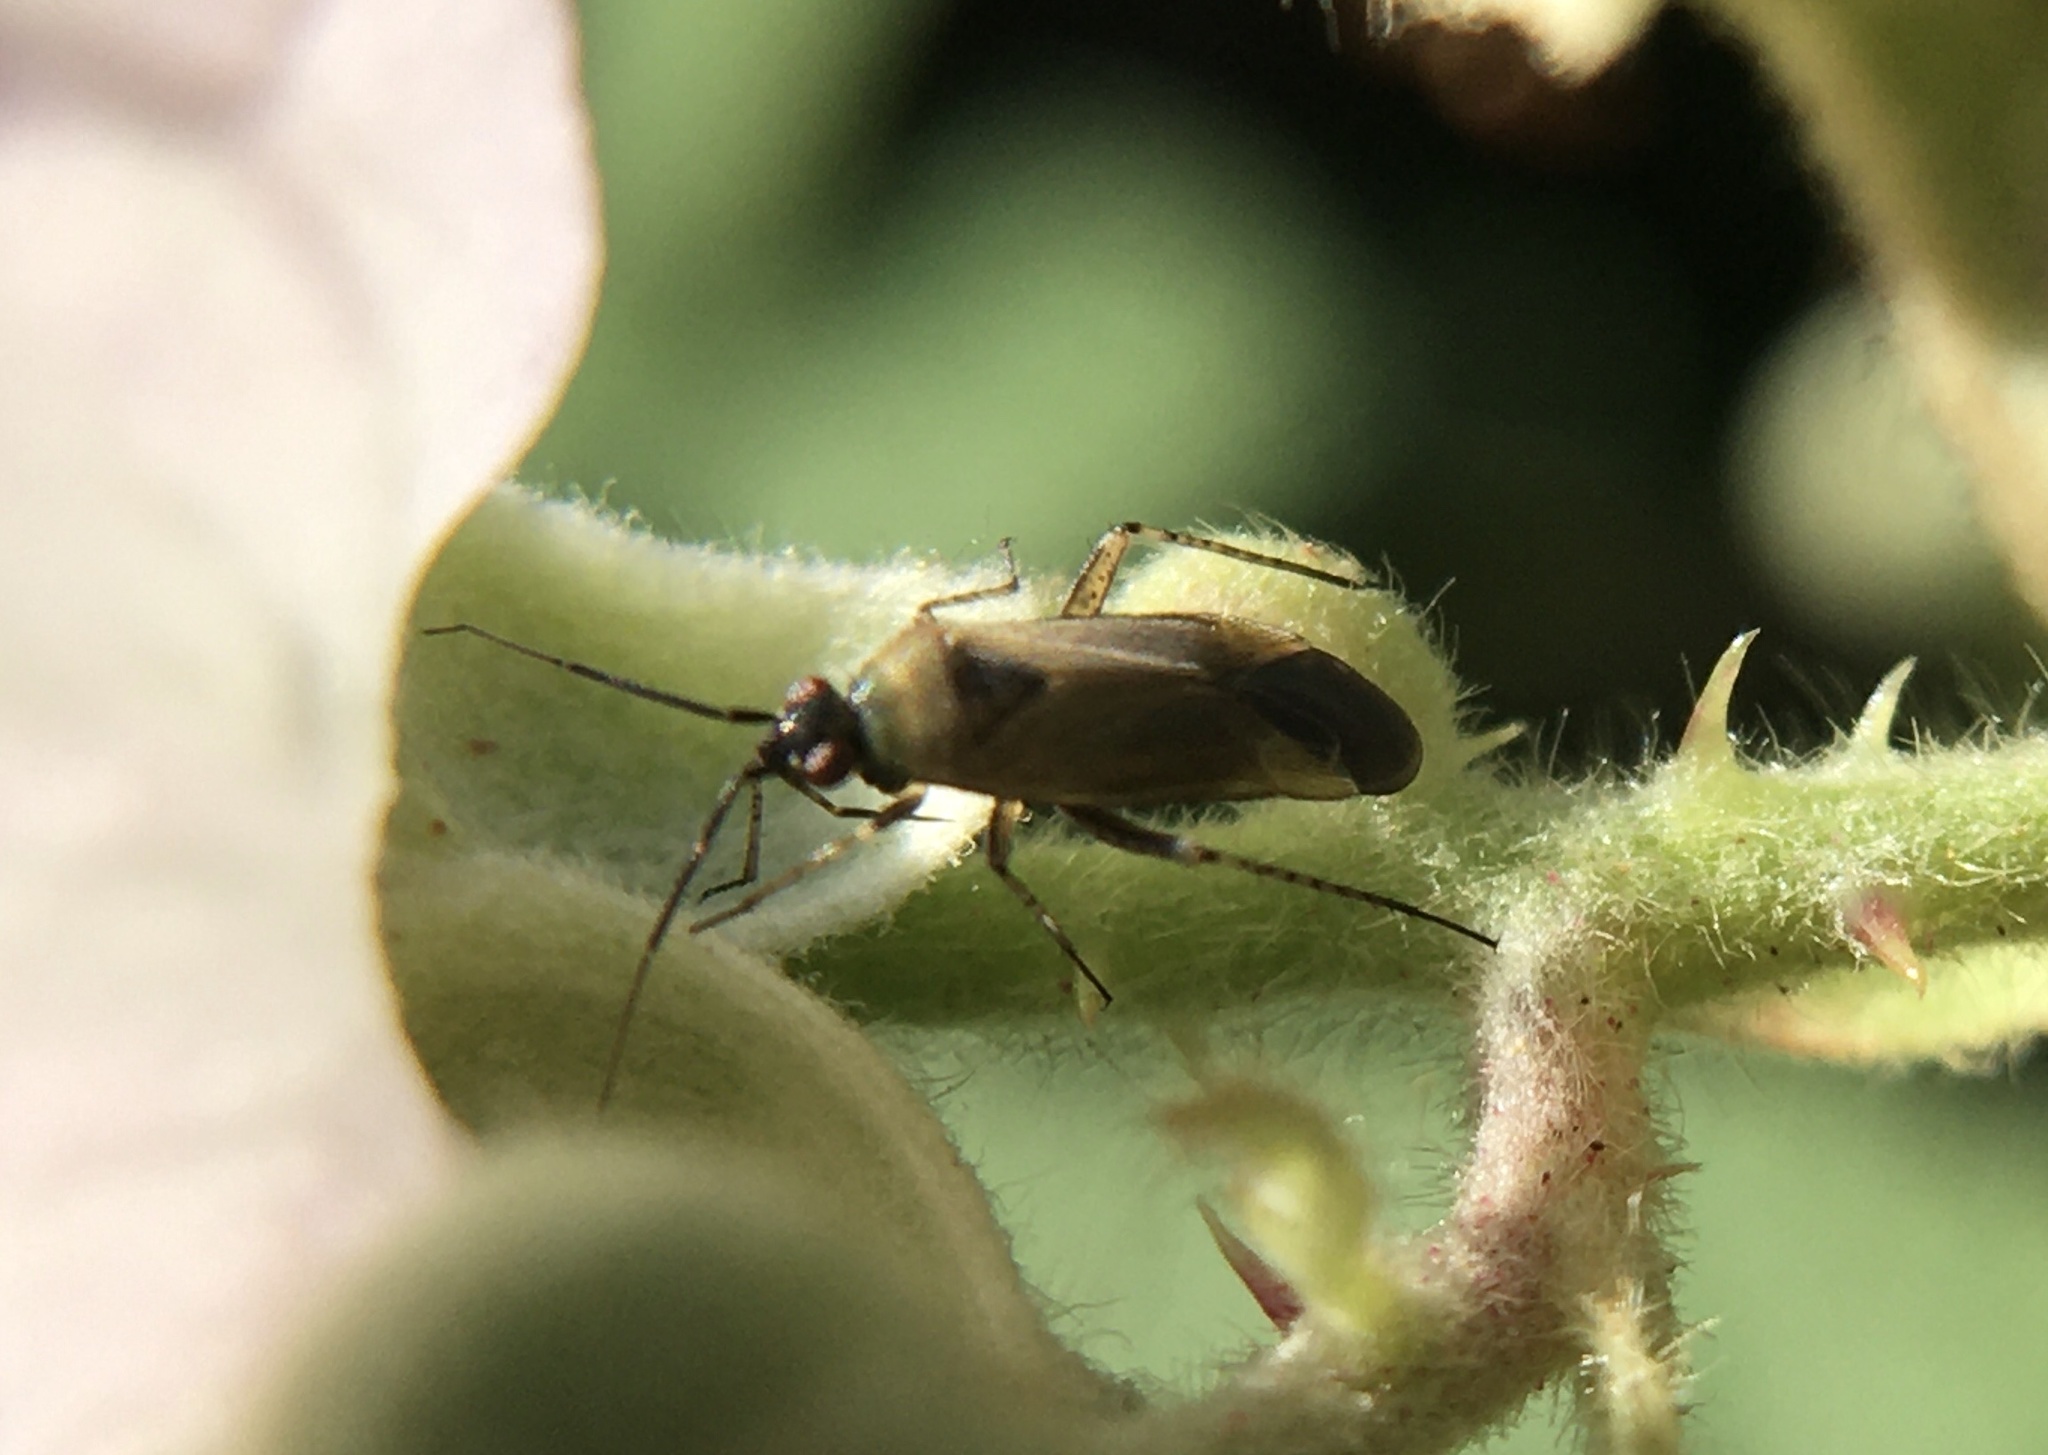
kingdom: Animalia
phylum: Arthropoda
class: Insecta
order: Hemiptera
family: Miridae
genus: Plagiognathus
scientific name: Plagiognathus arbustorum
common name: Plant bug
